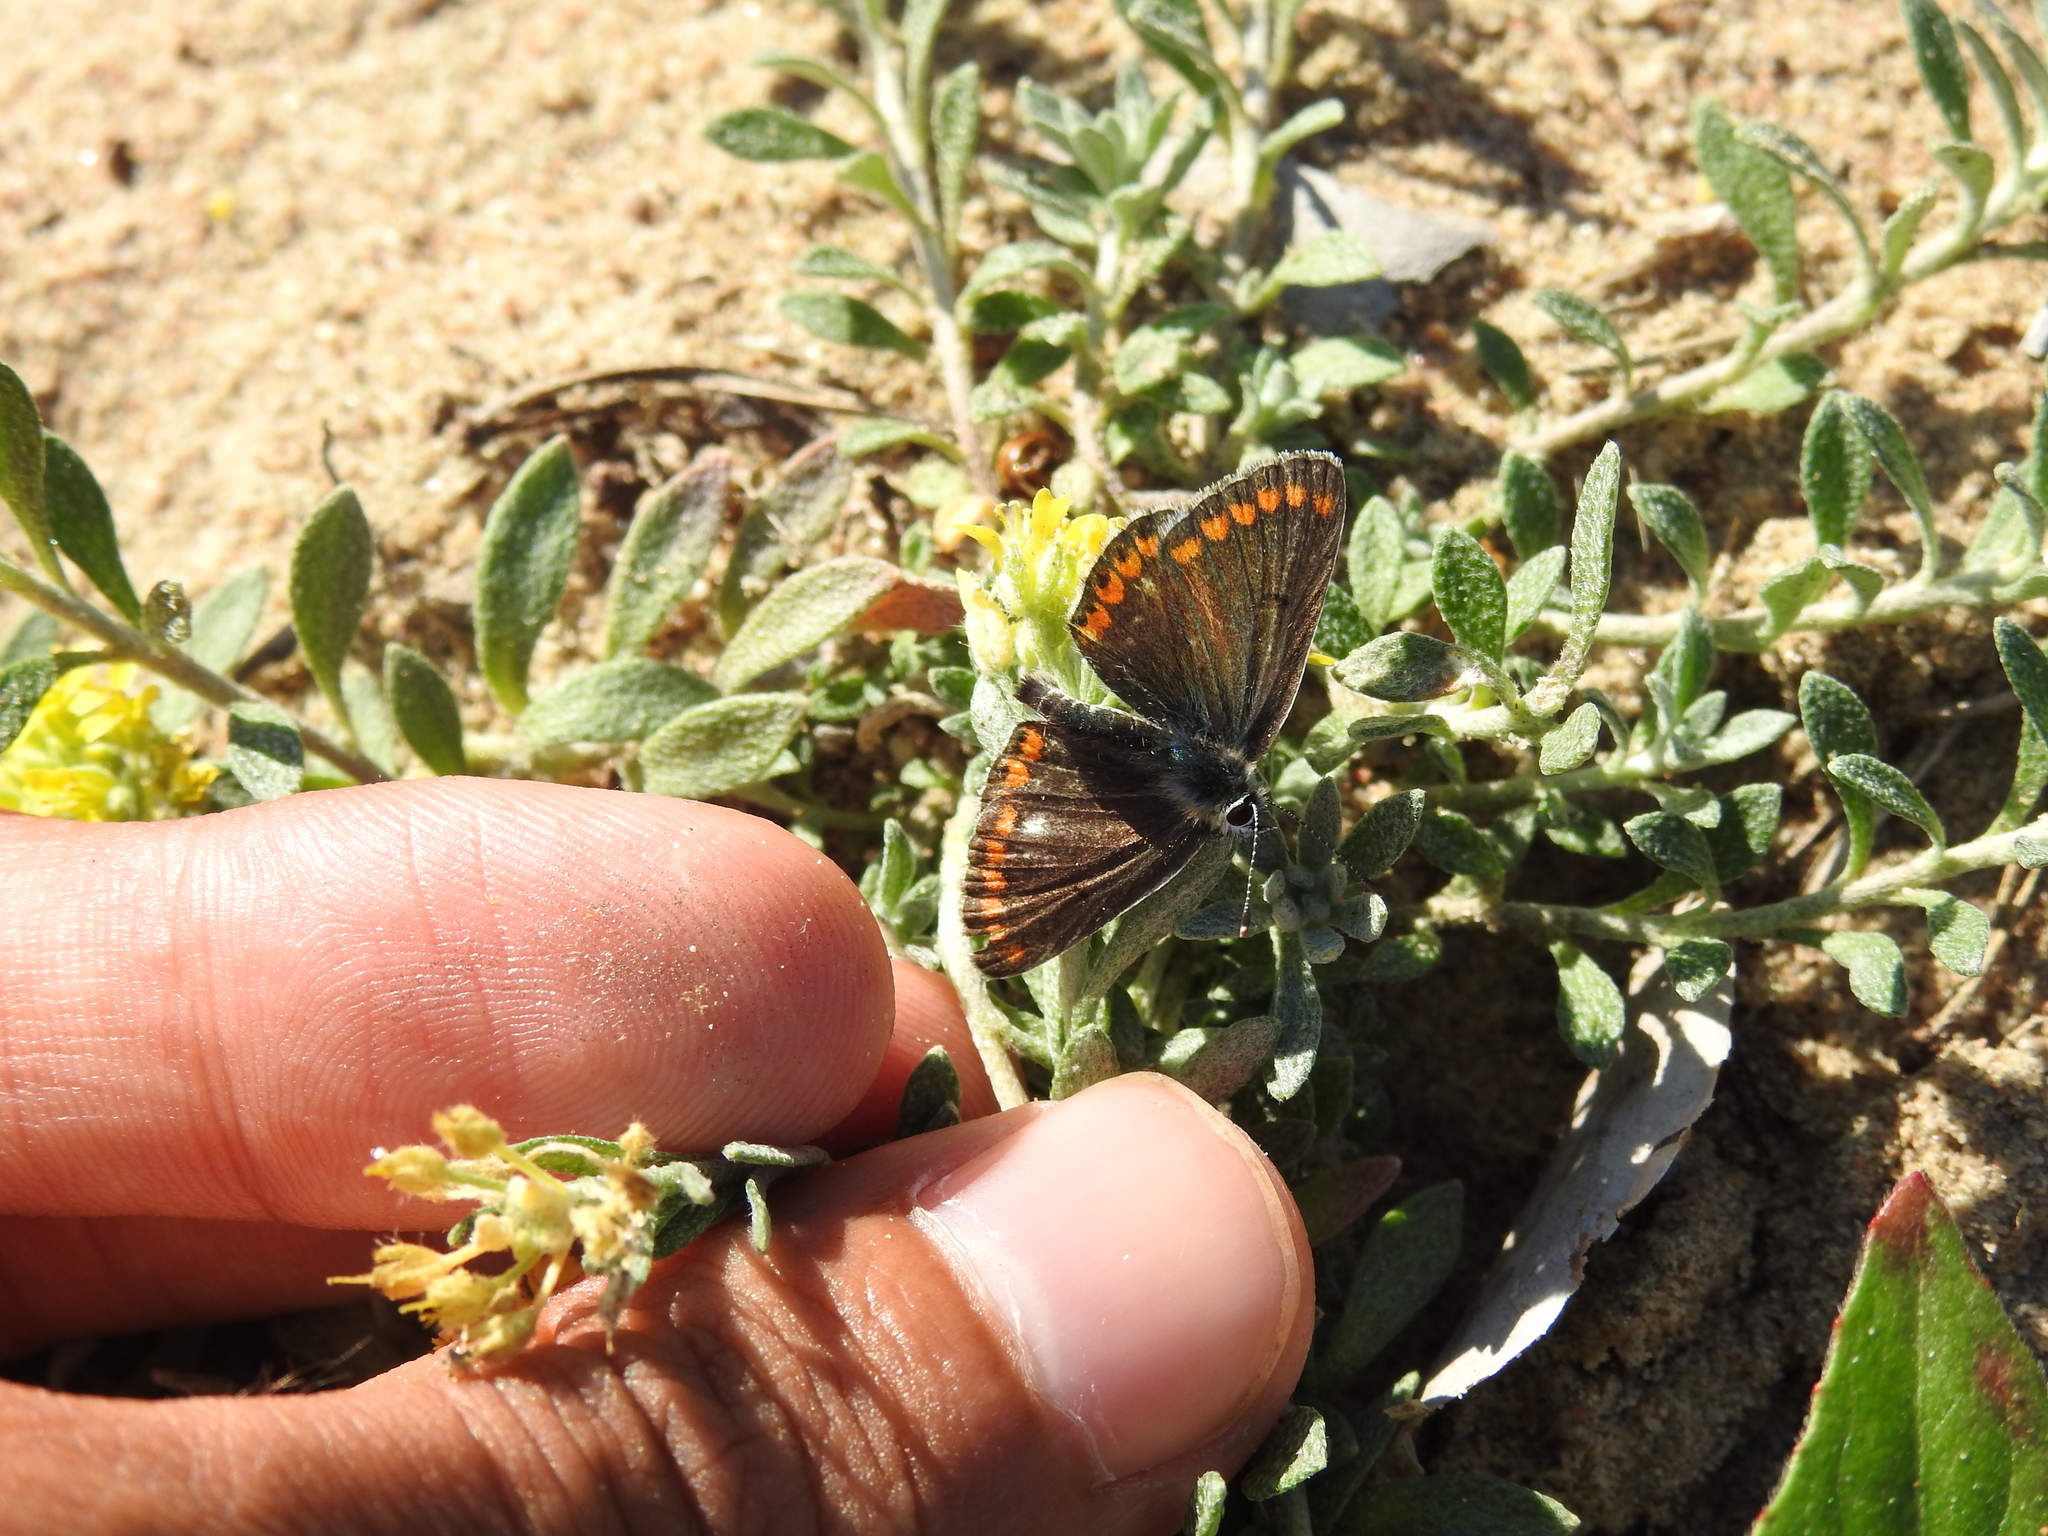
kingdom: Plantae
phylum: Tracheophyta
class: Magnoliopsida
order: Brassicales
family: Brassicaceae
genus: Alyssum
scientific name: Alyssum gmelinii
